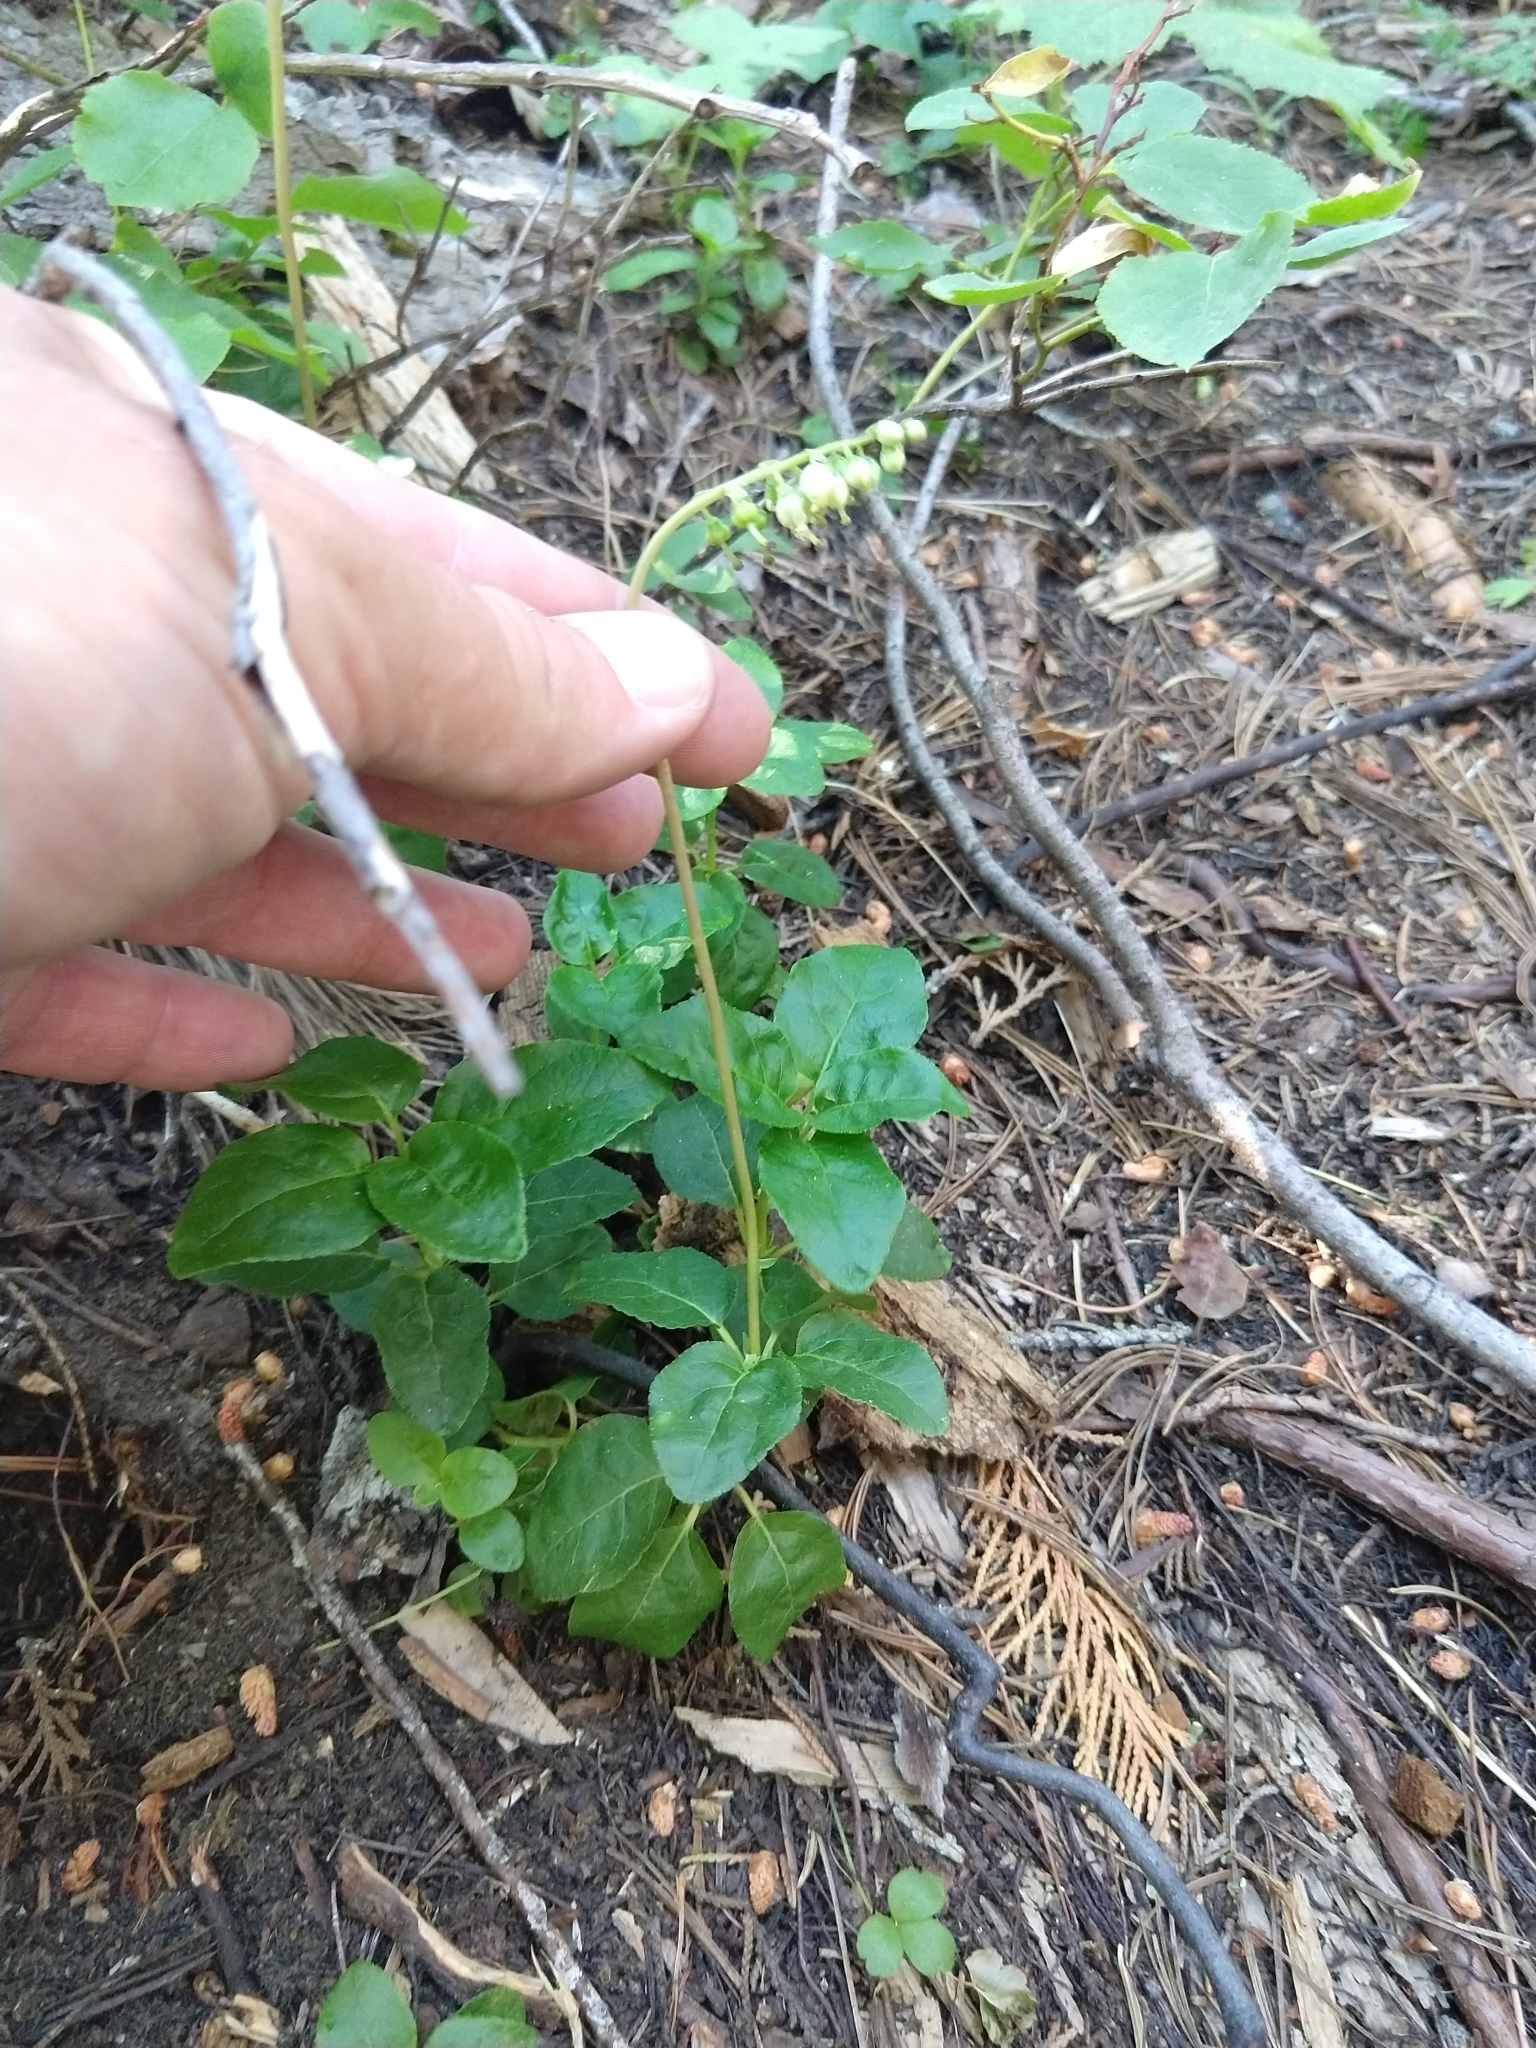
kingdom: Plantae
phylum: Tracheophyta
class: Magnoliopsida
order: Ericales
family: Ericaceae
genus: Orthilia
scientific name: Orthilia secunda
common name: One-sided orthilia
